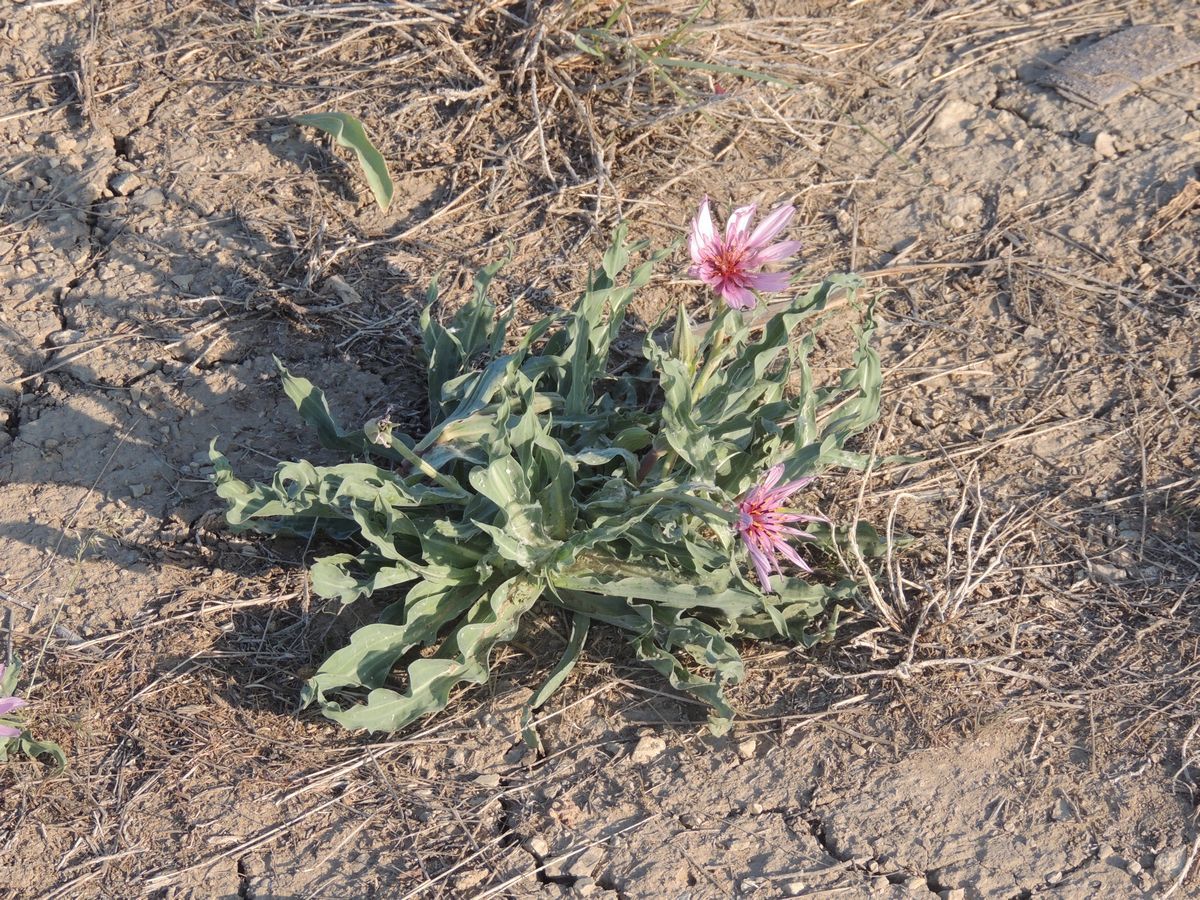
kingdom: Plantae
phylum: Tracheophyta
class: Magnoliopsida
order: Asterales
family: Asteraceae
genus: Tragopogon
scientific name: Tragopogon marginifolius
